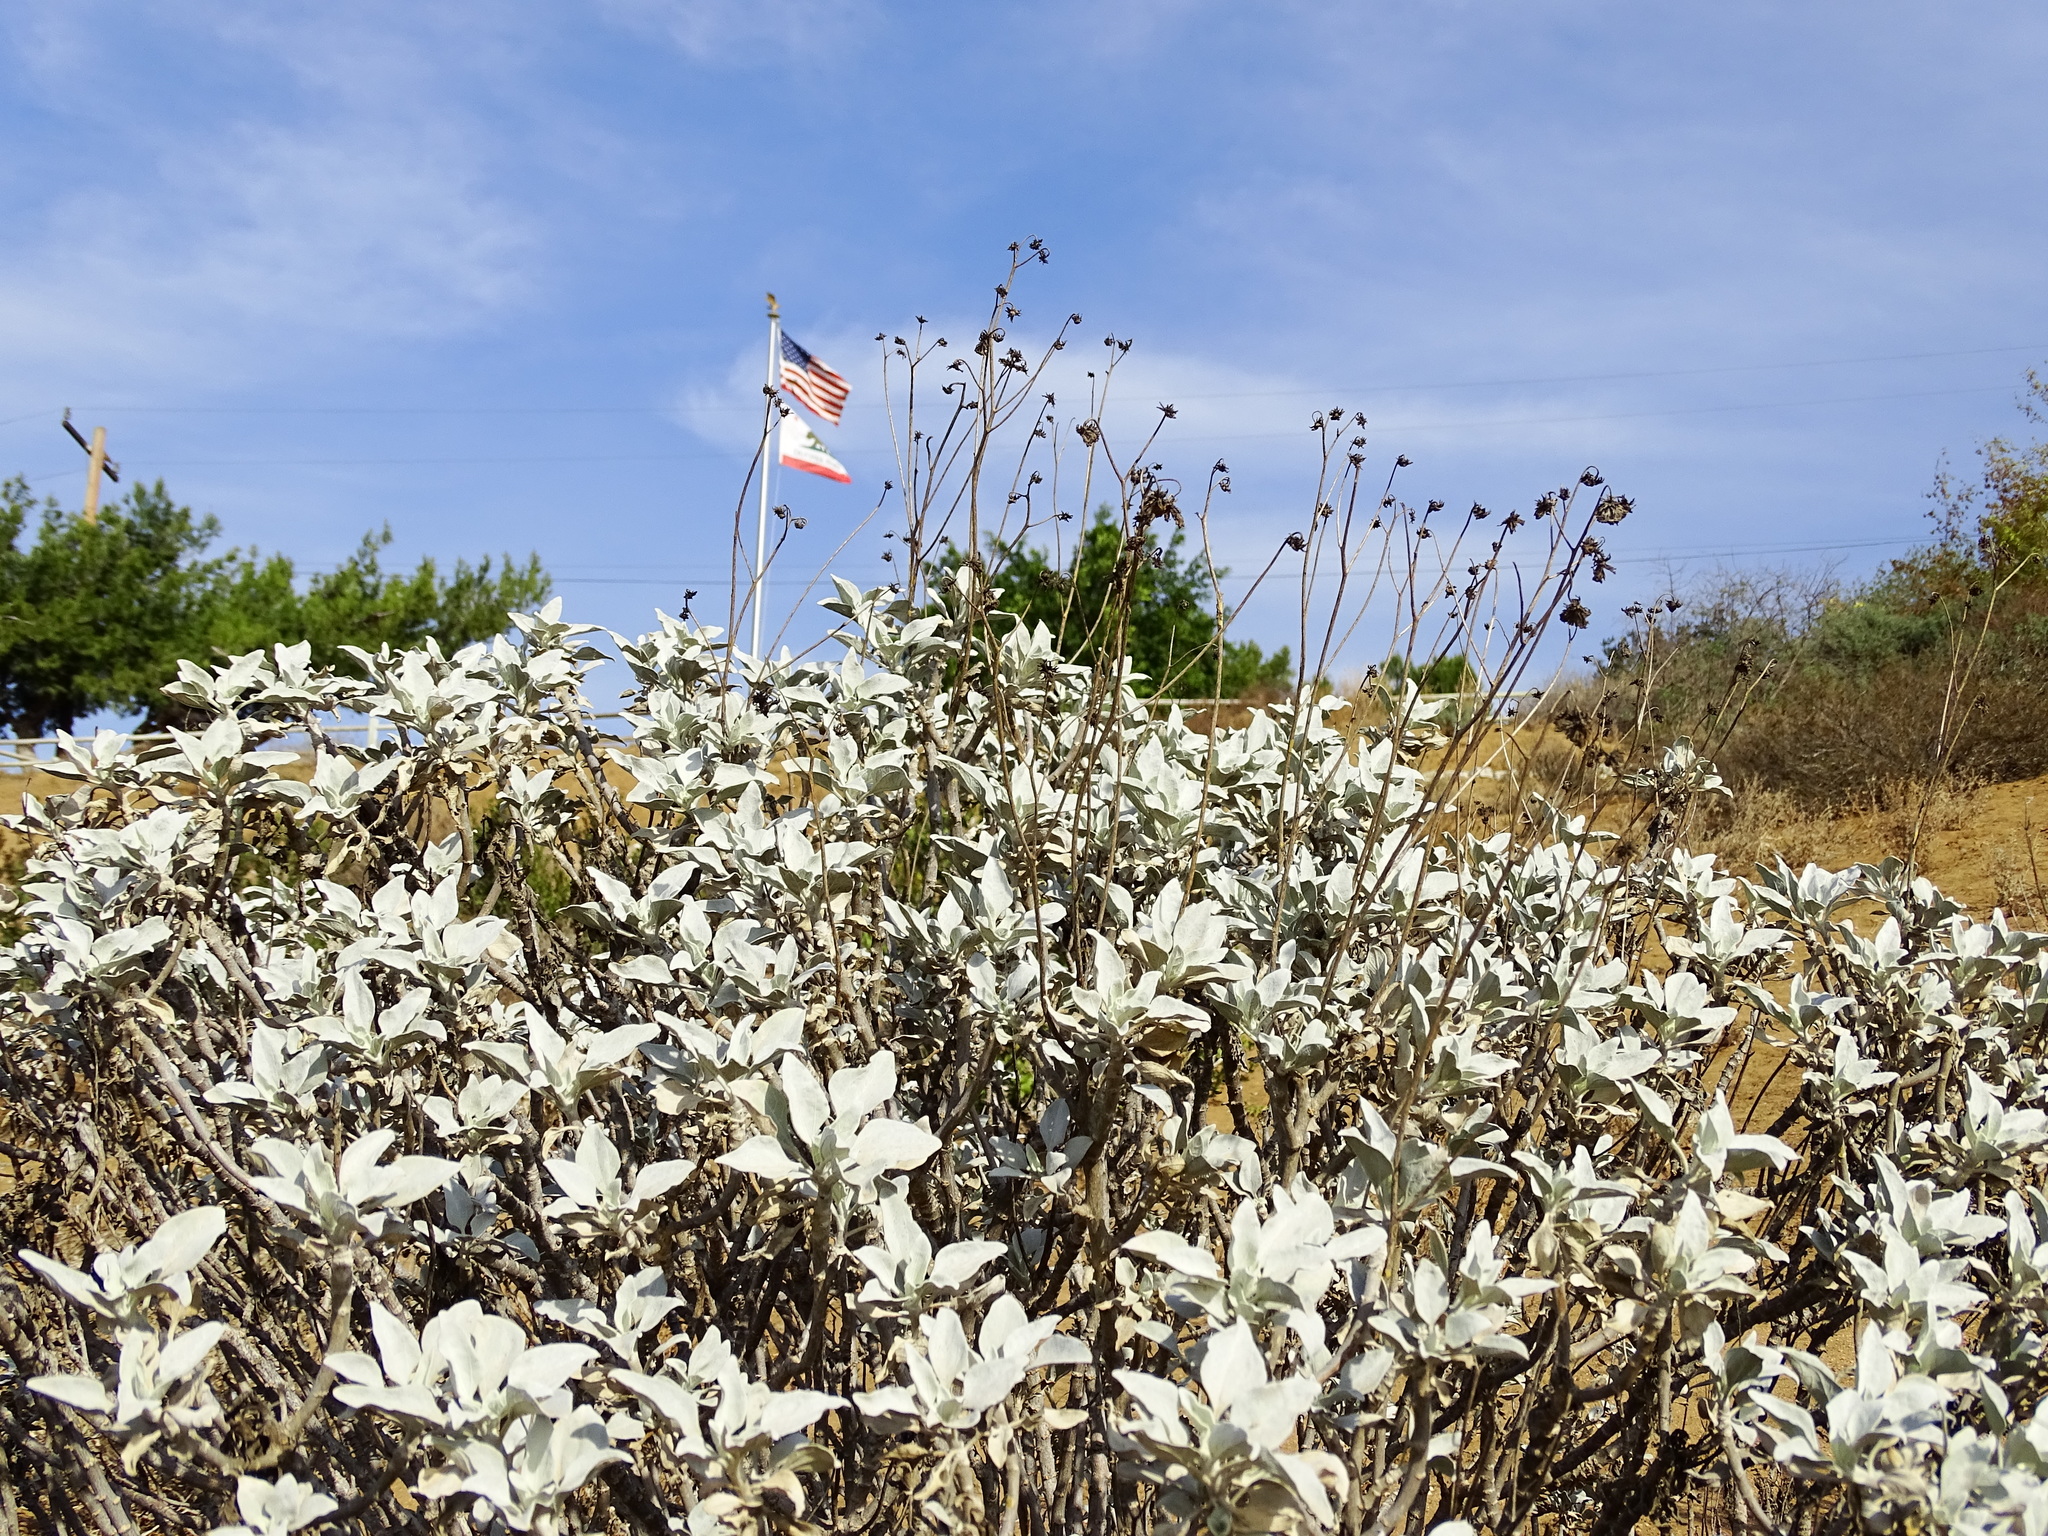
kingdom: Plantae
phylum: Tracheophyta
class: Magnoliopsida
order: Asterales
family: Asteraceae
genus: Encelia
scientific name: Encelia farinosa
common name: Brittlebush
